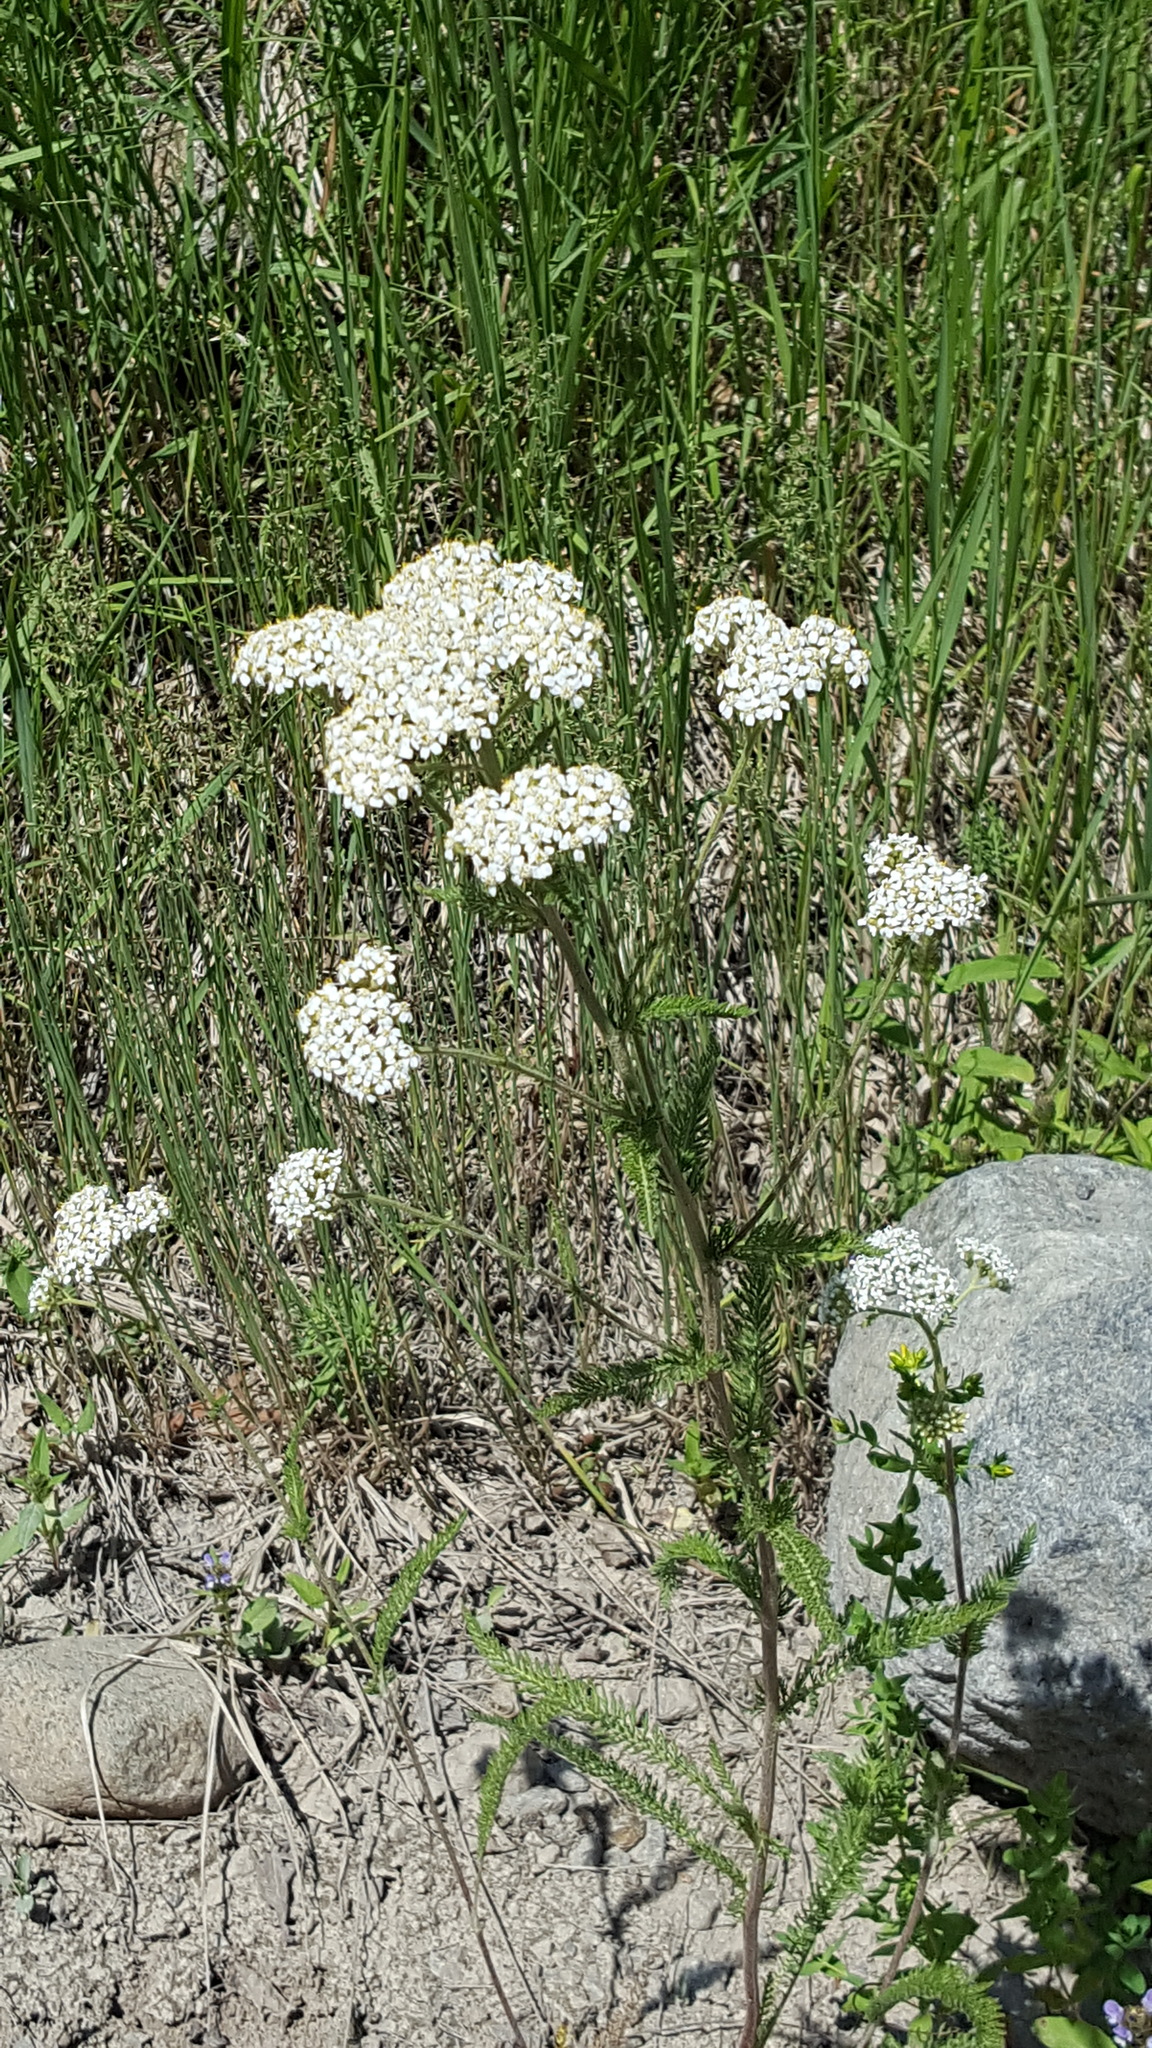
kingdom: Plantae
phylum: Tracheophyta
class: Magnoliopsida
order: Asterales
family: Asteraceae
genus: Achillea
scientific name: Achillea millefolium
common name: Yarrow
